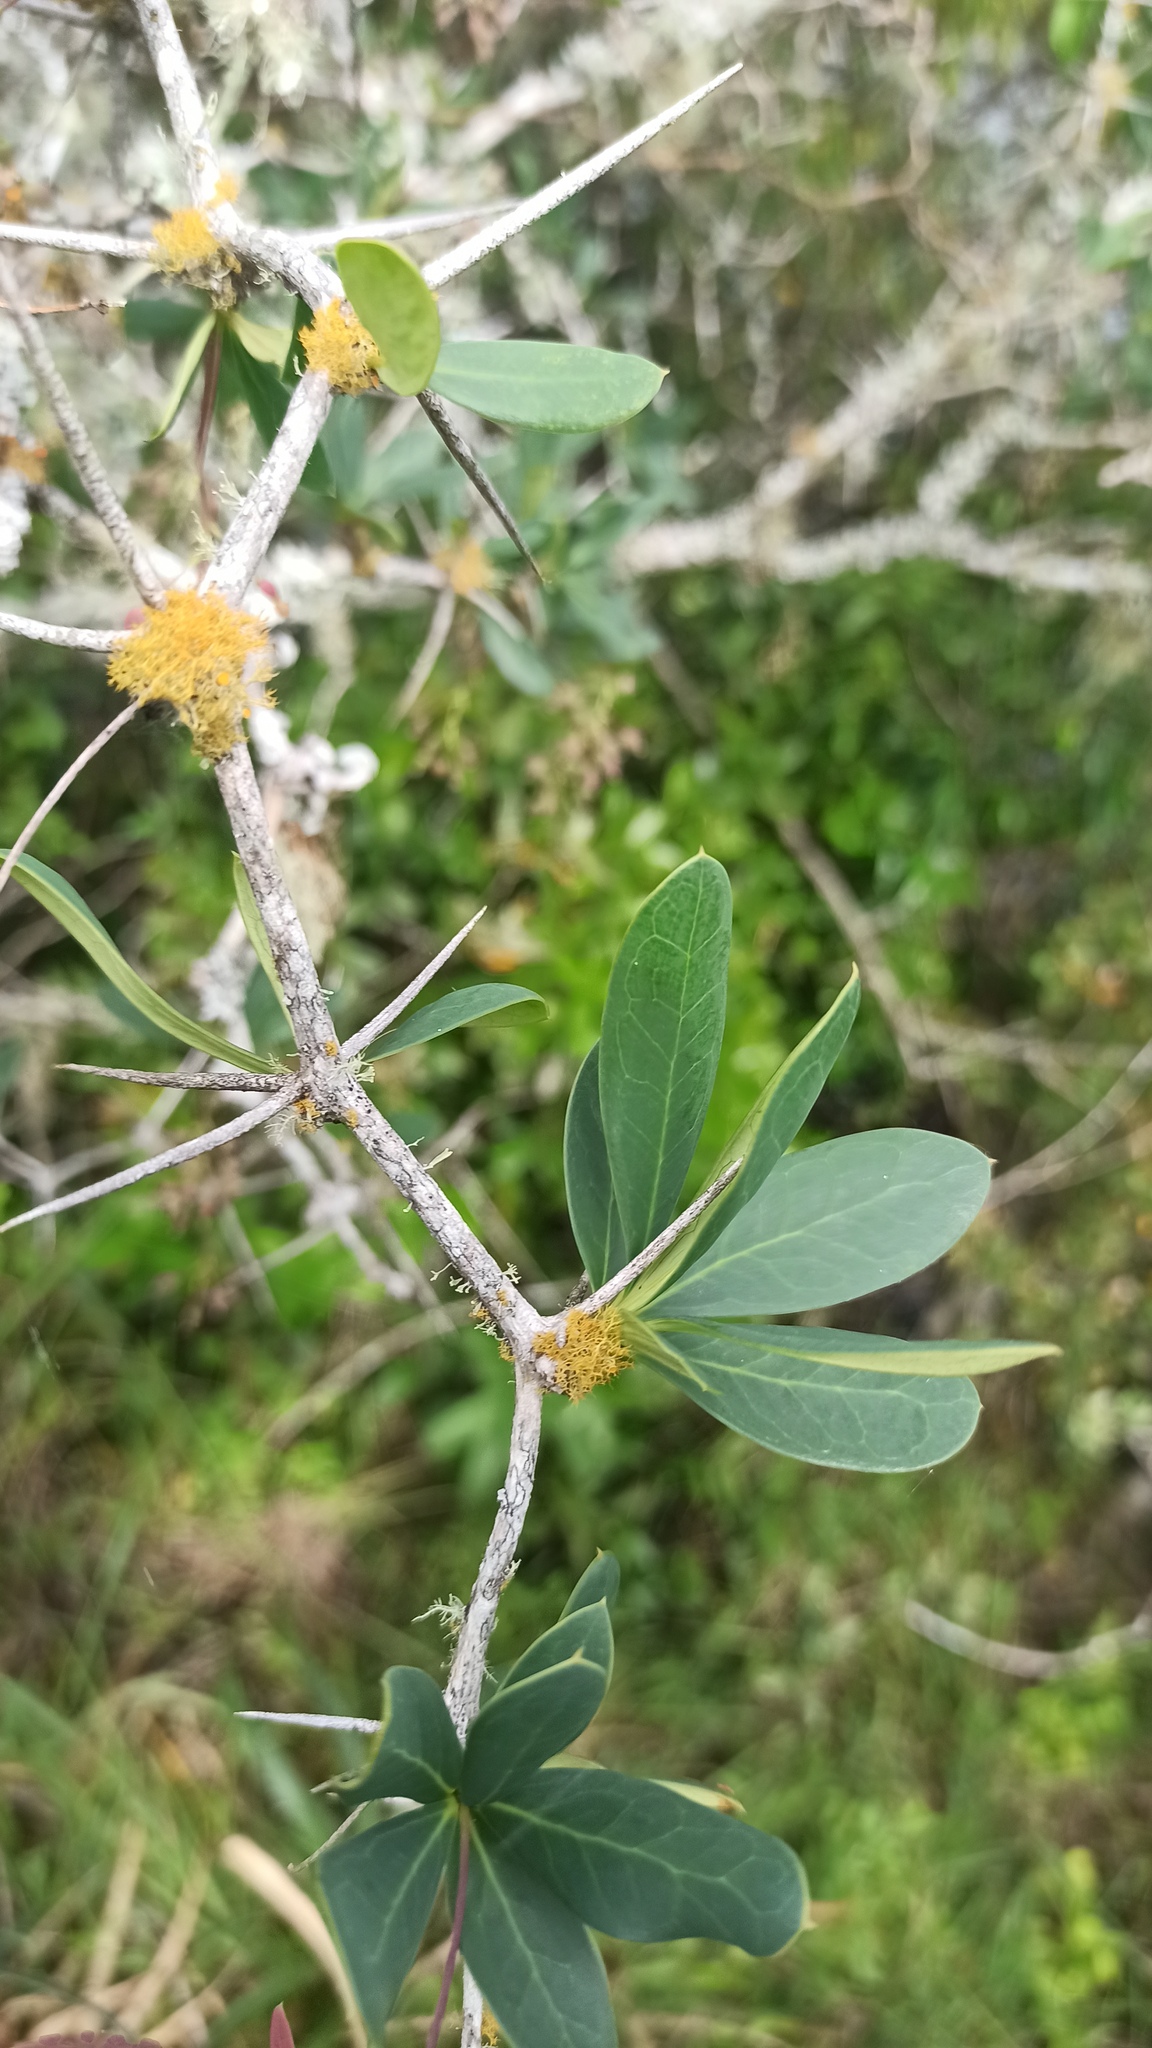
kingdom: Plantae
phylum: Tracheophyta
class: Magnoliopsida
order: Ranunculales
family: Berberidaceae
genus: Berberis
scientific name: Berberis laurina
